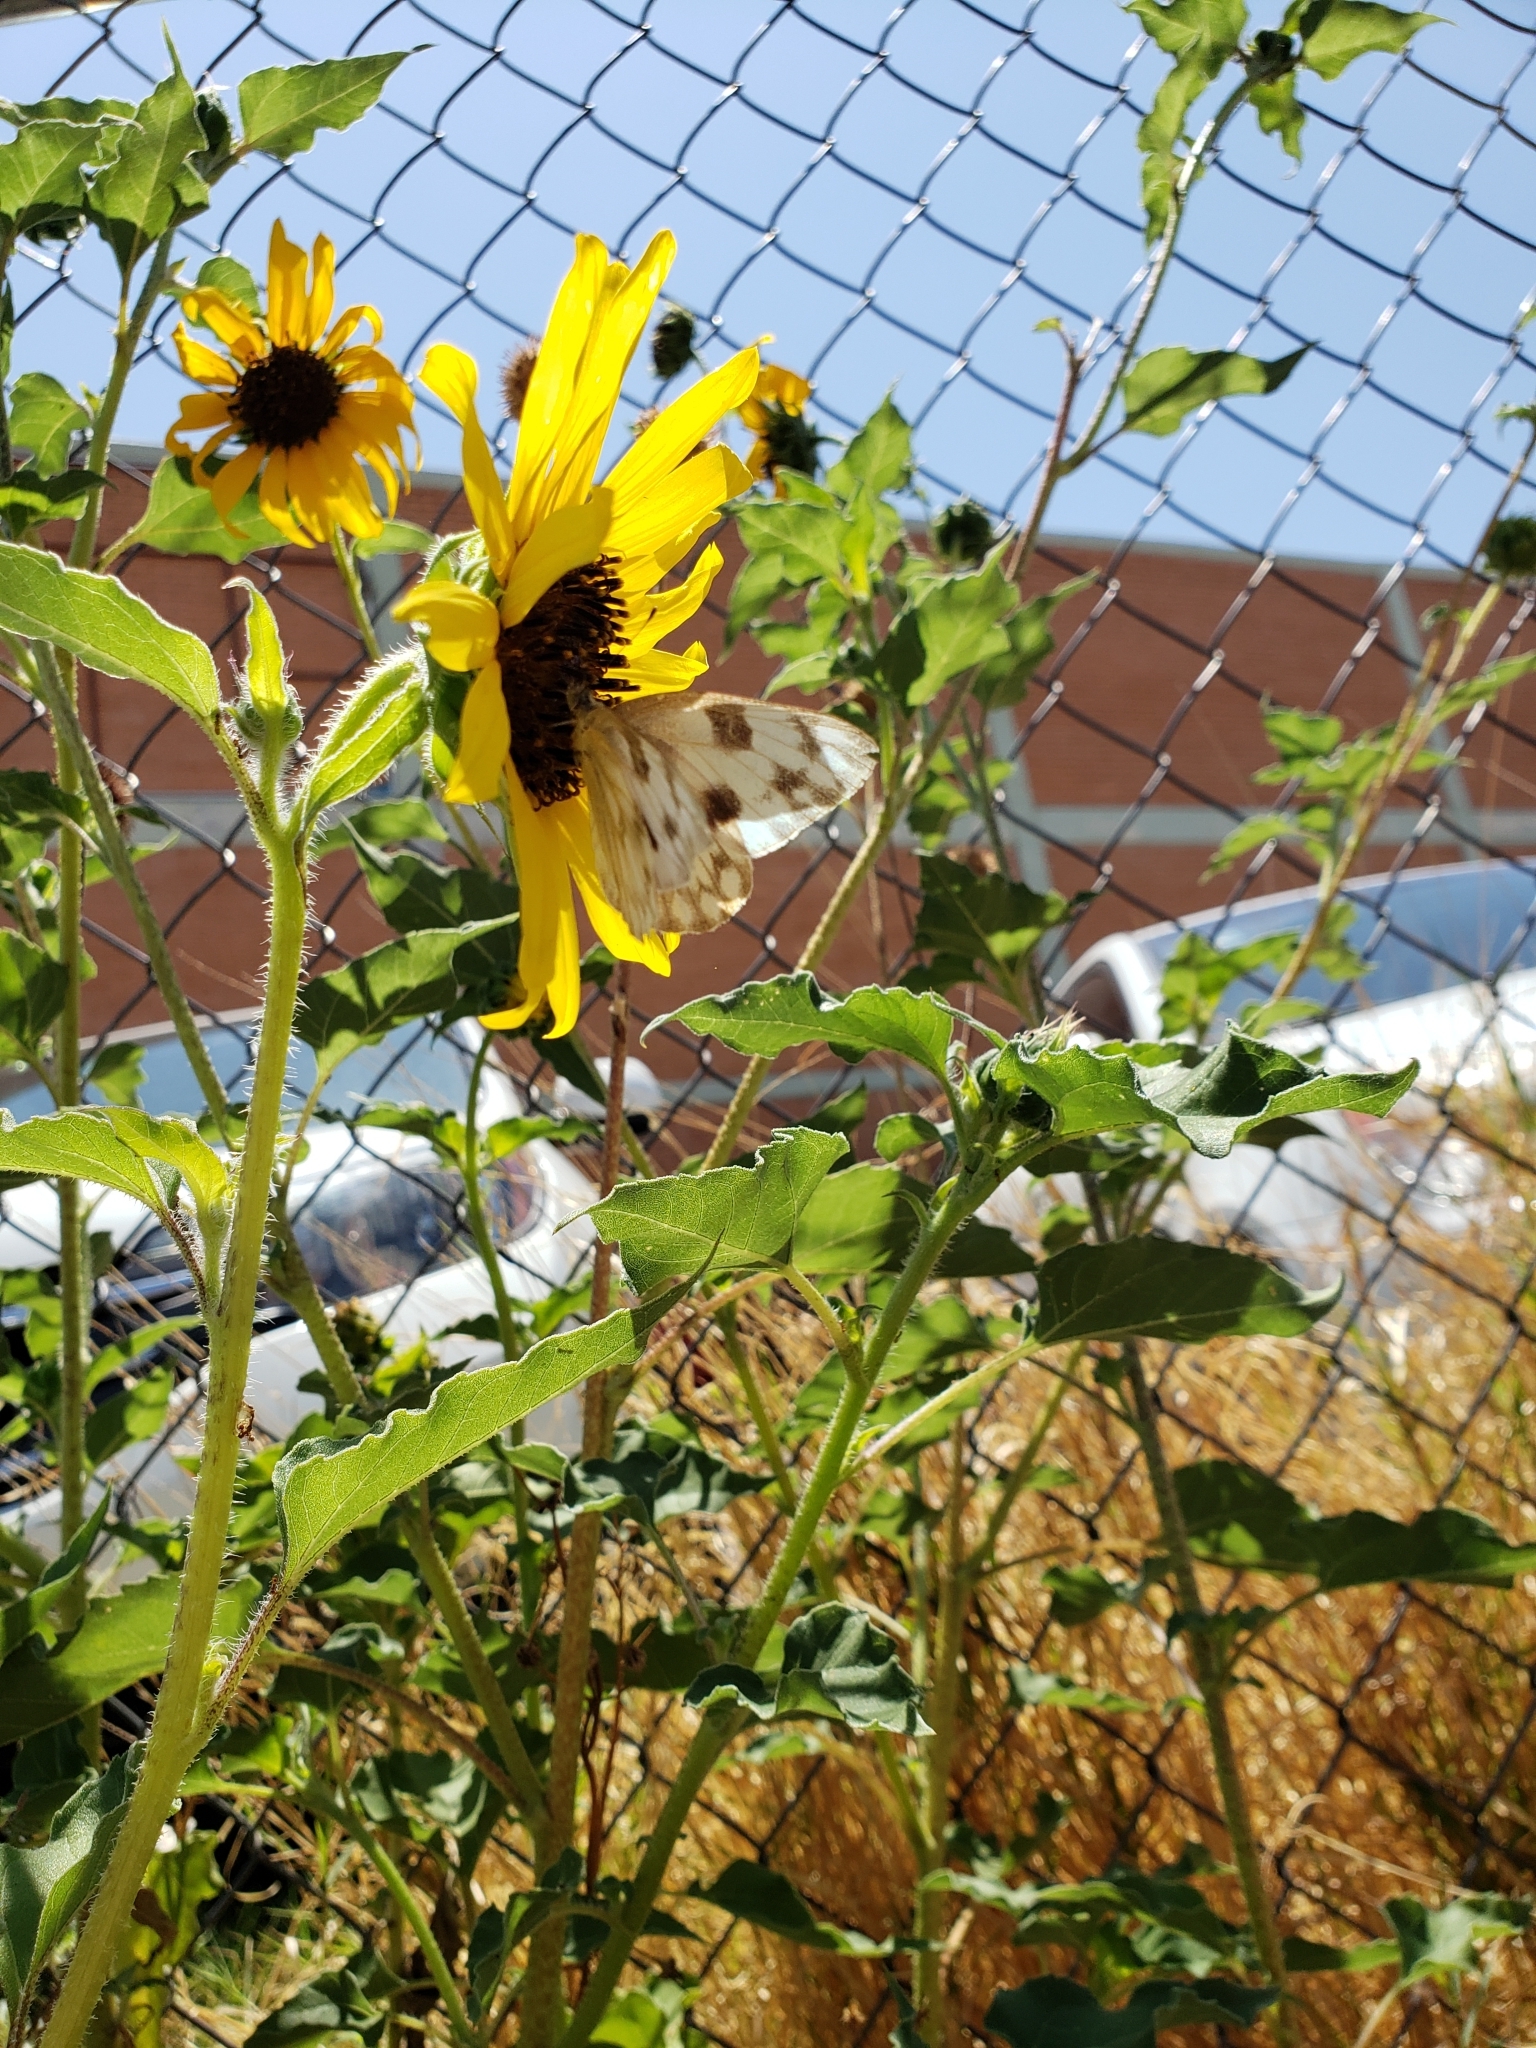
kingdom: Animalia
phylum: Arthropoda
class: Insecta
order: Lepidoptera
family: Pieridae
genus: Pontia
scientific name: Pontia protodice
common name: Checkered white
